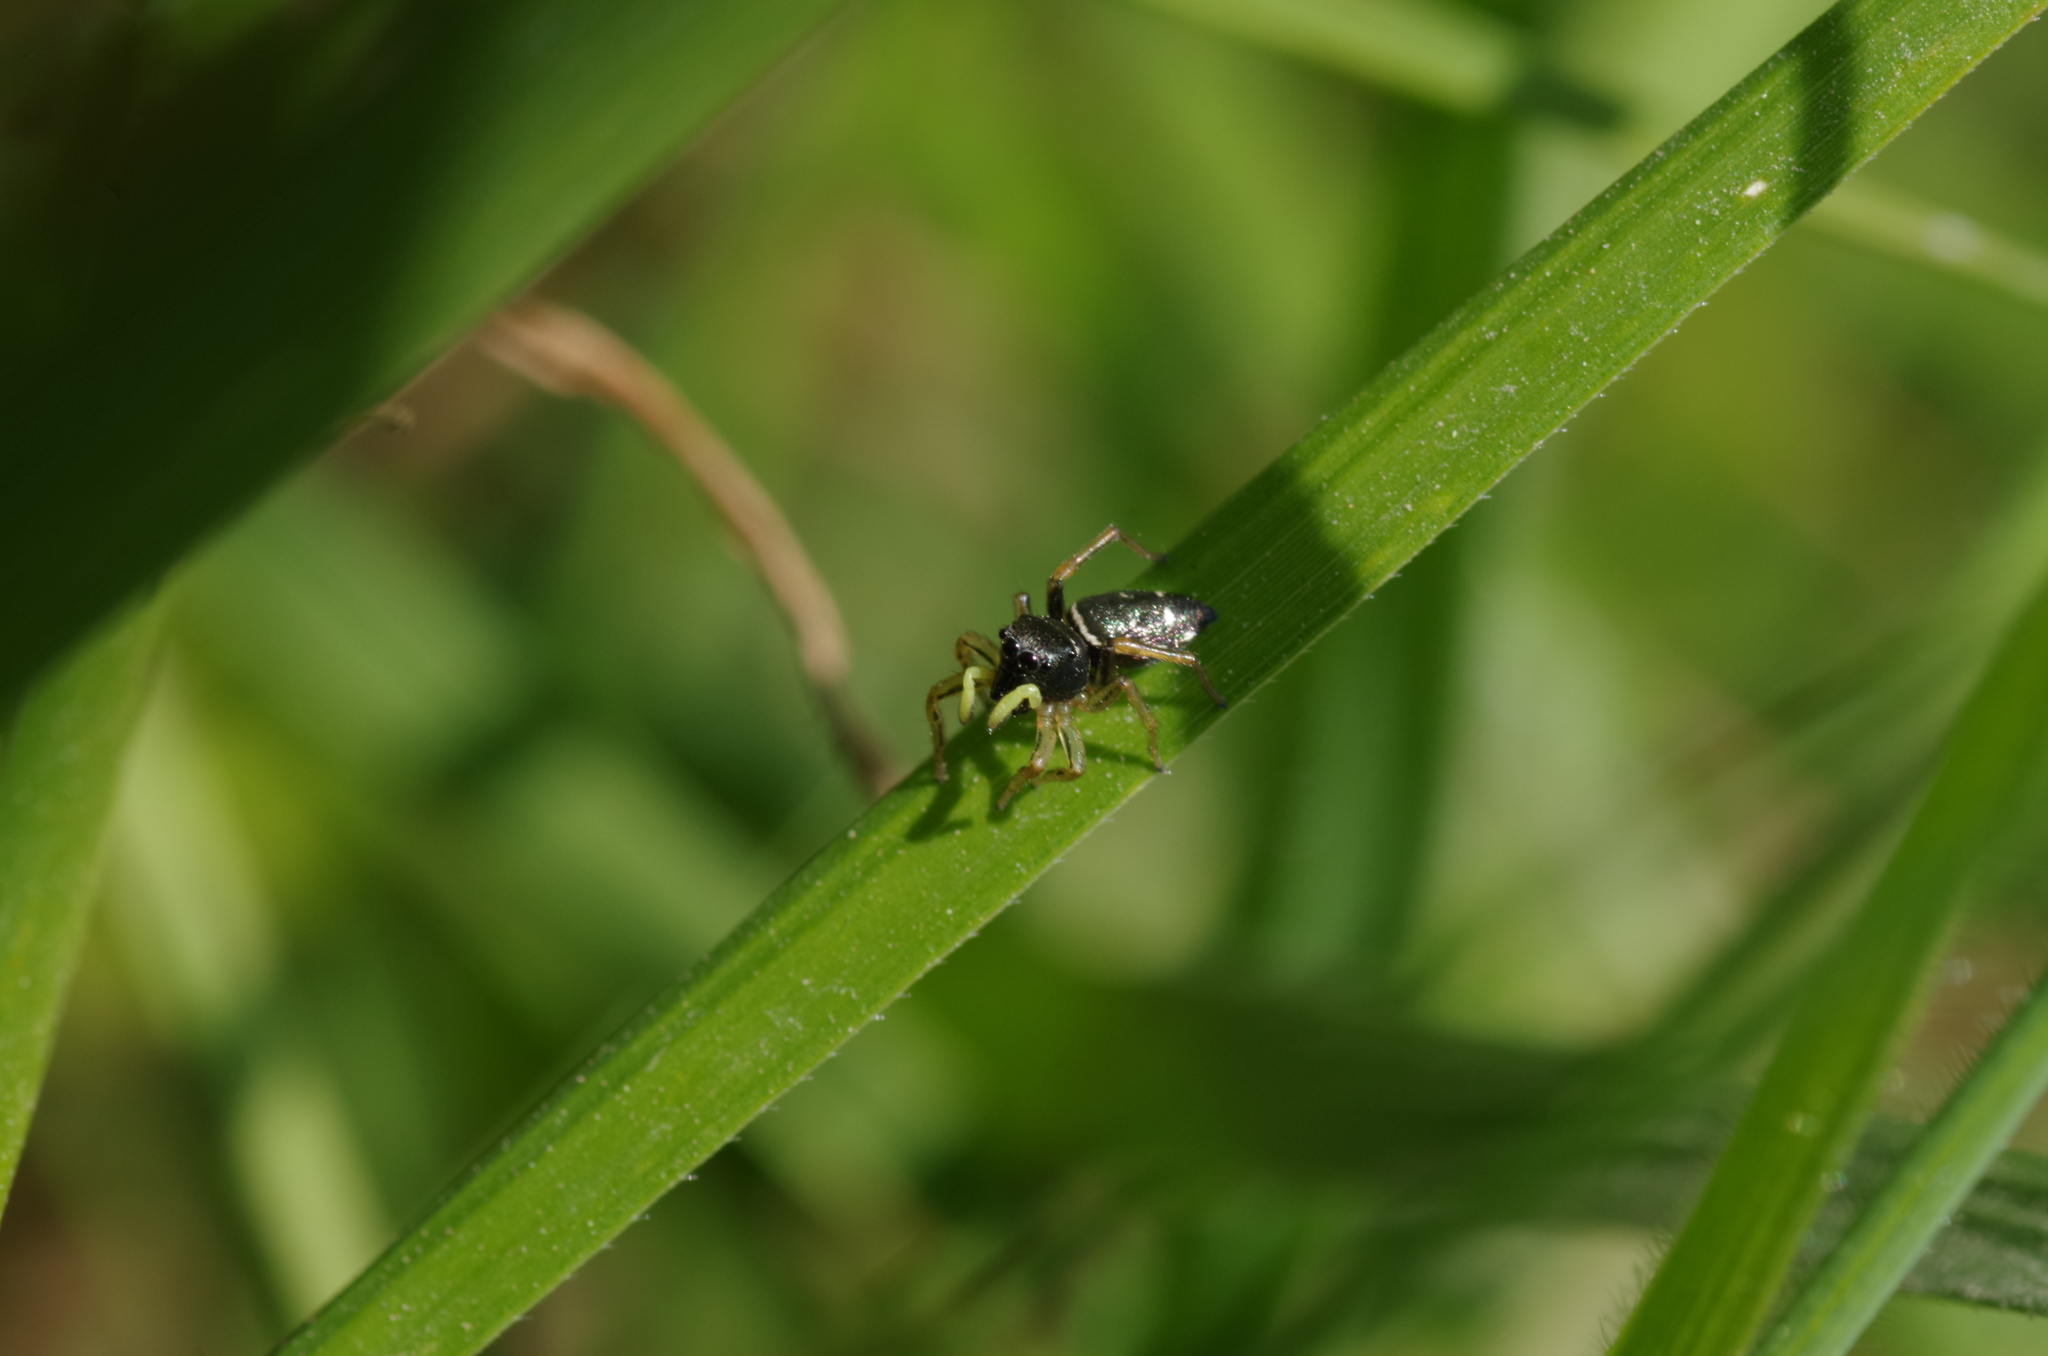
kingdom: Animalia
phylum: Arthropoda
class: Arachnida
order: Araneae
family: Salticidae
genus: Heliophanus
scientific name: Heliophanus cupreus
